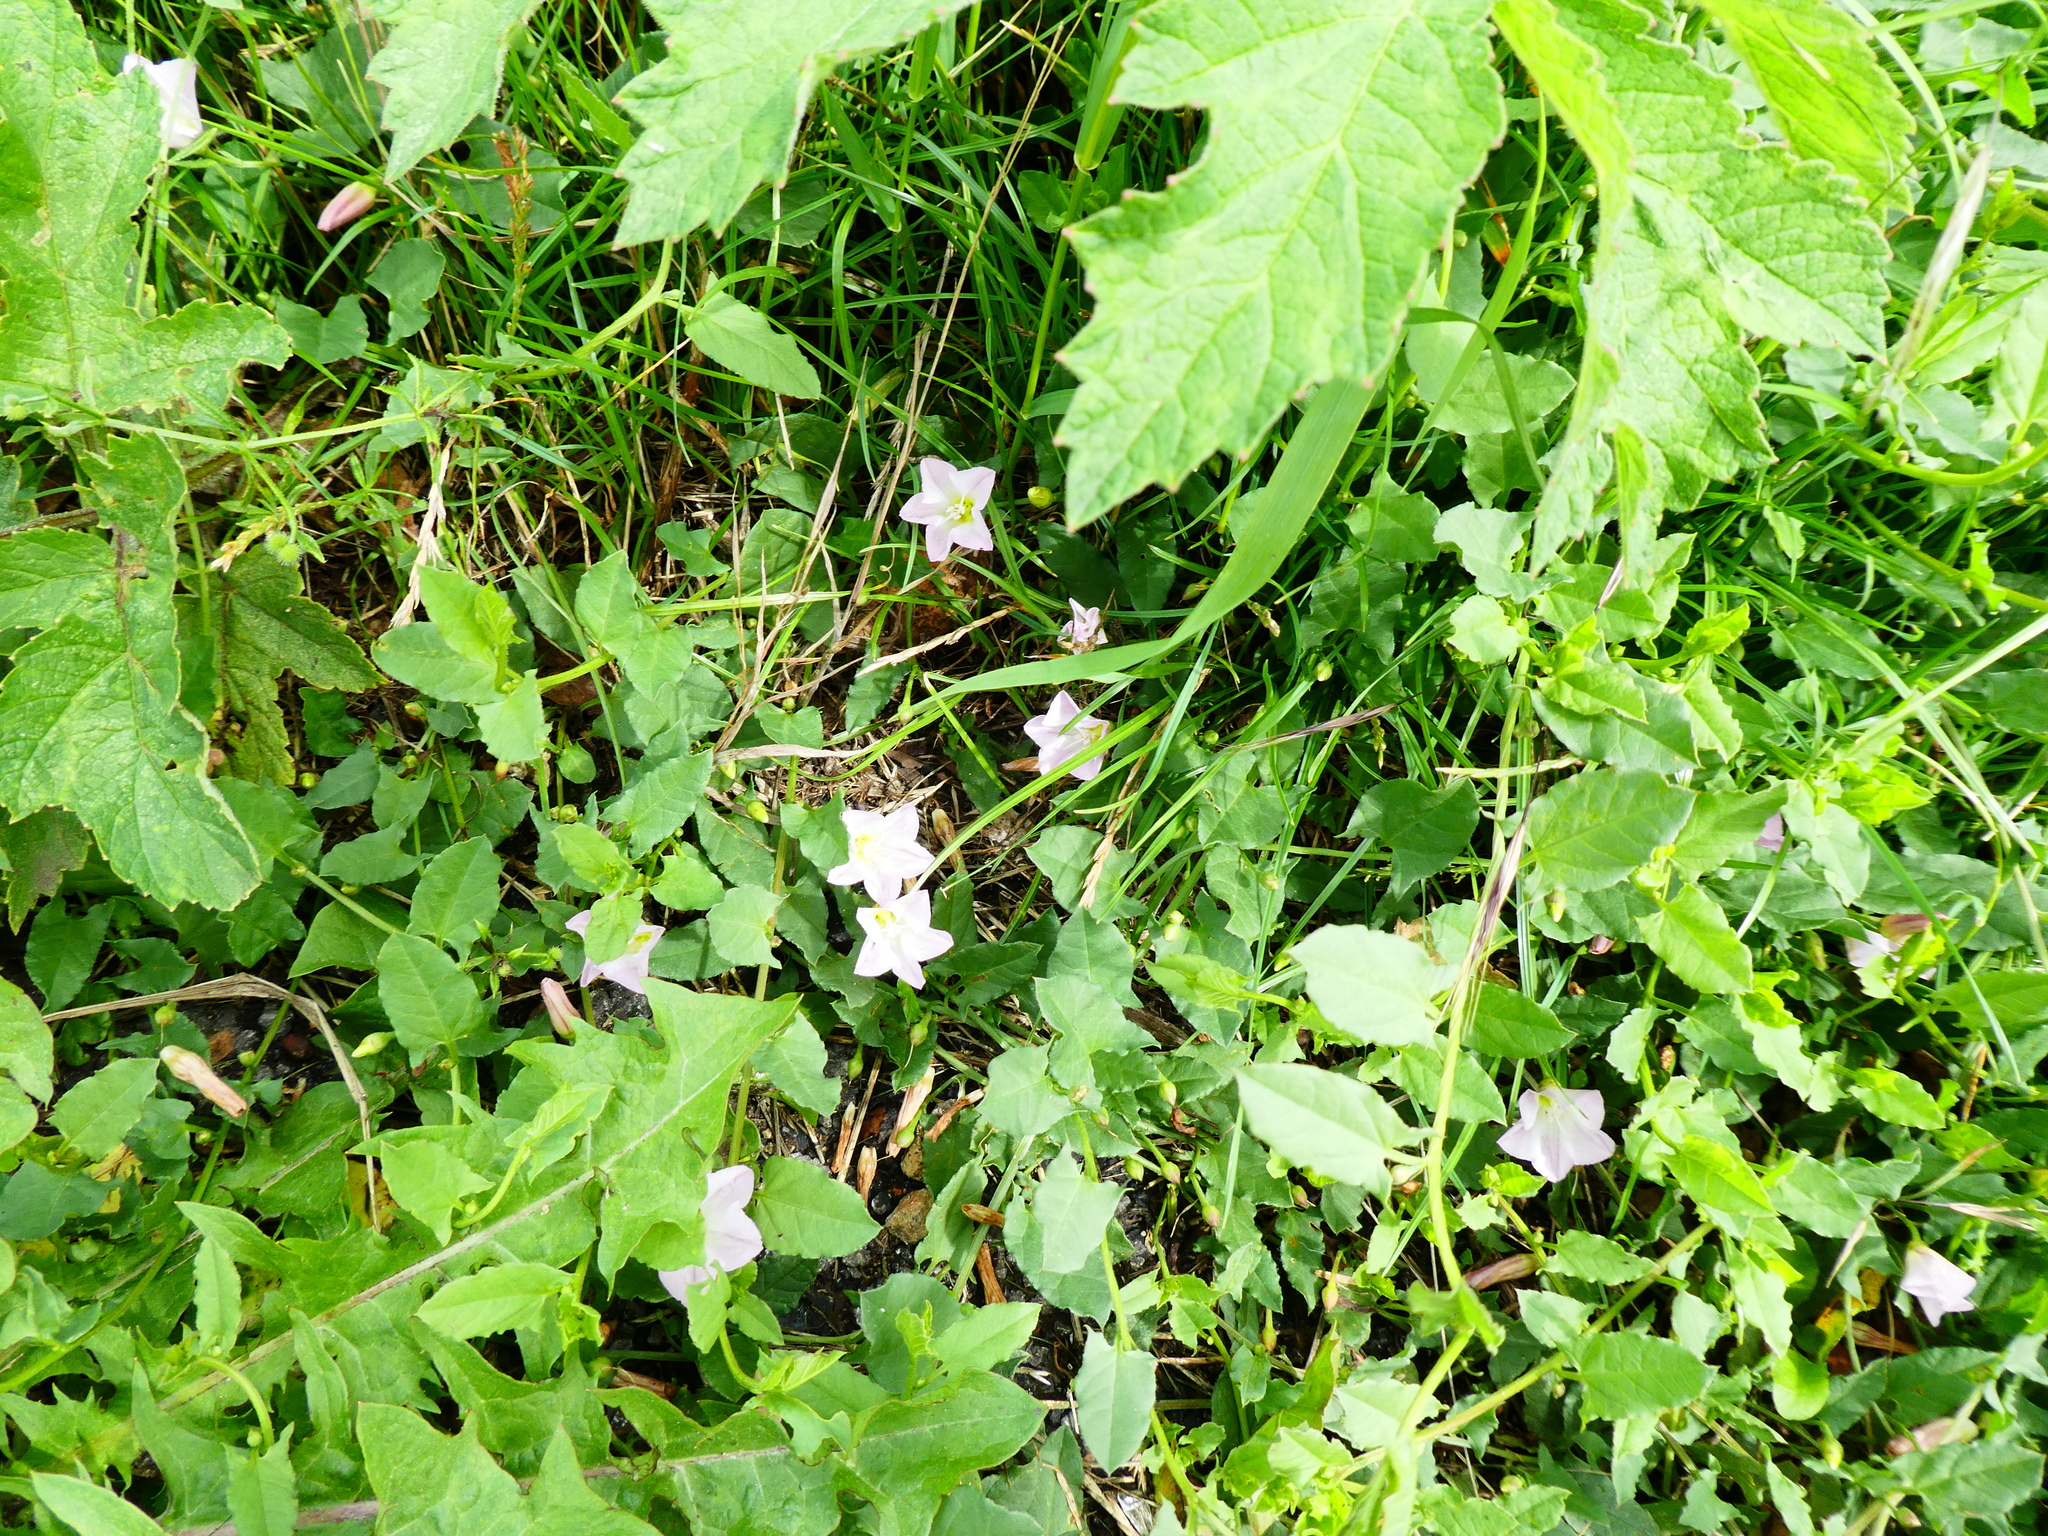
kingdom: Plantae
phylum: Tracheophyta
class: Magnoliopsida
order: Solanales
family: Convolvulaceae
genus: Convolvulus
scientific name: Convolvulus arvensis
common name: Field bindweed
